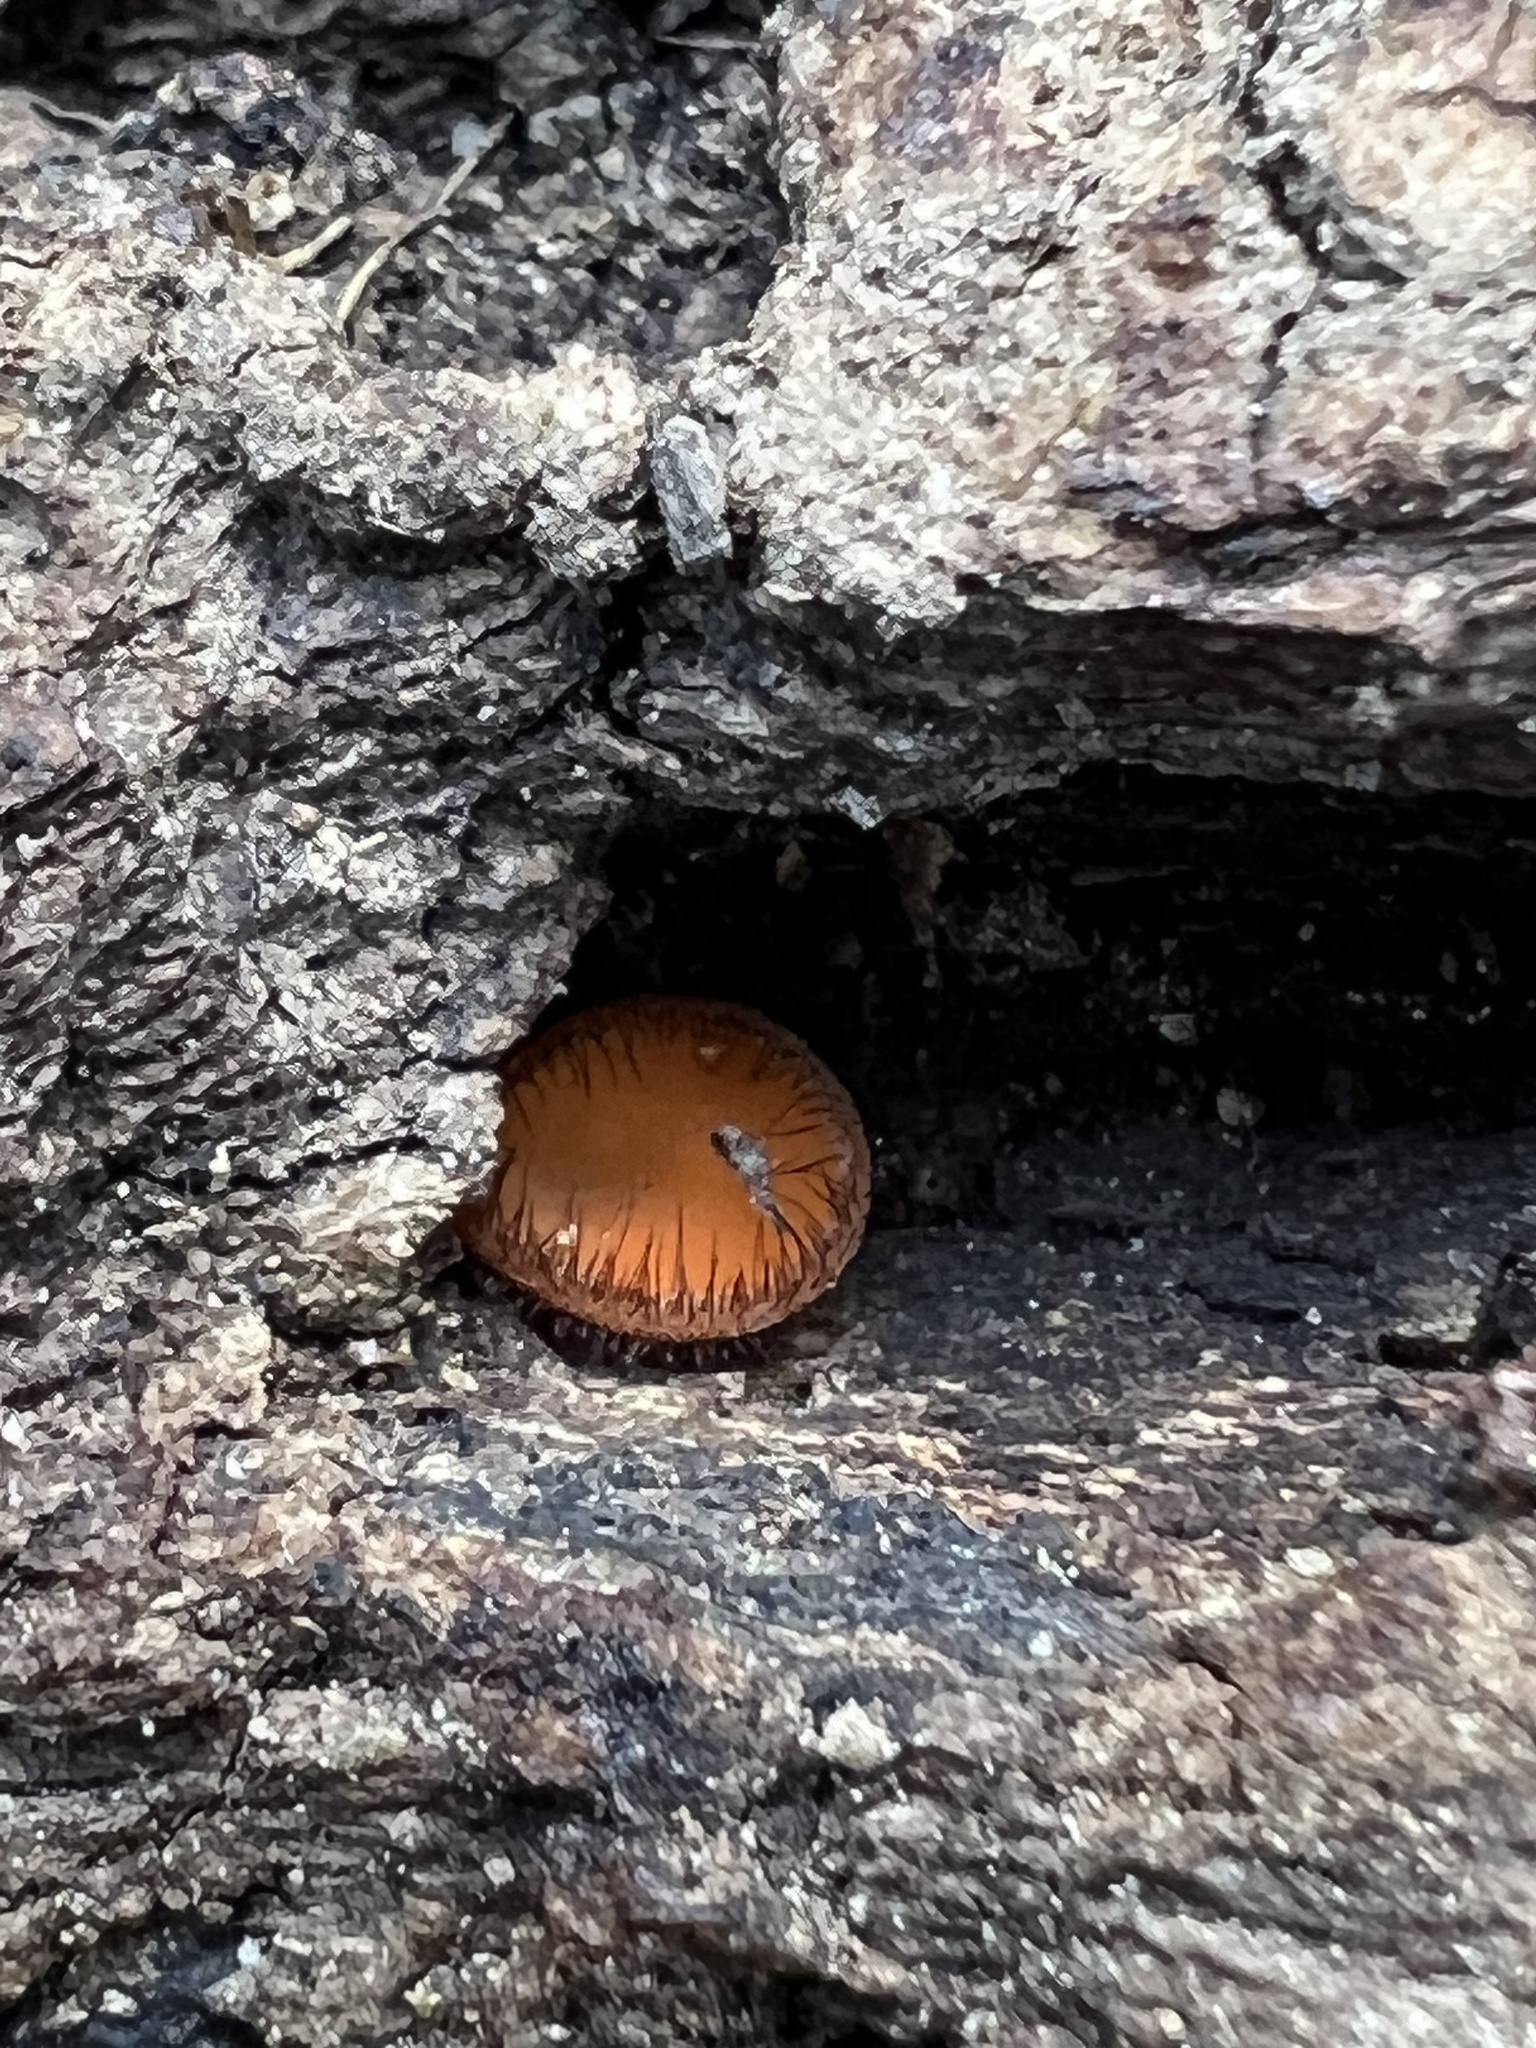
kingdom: Fungi
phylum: Ascomycota
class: Pezizomycetes
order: Pezizales
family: Pyronemataceae
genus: Scutellinia
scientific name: Scutellinia
